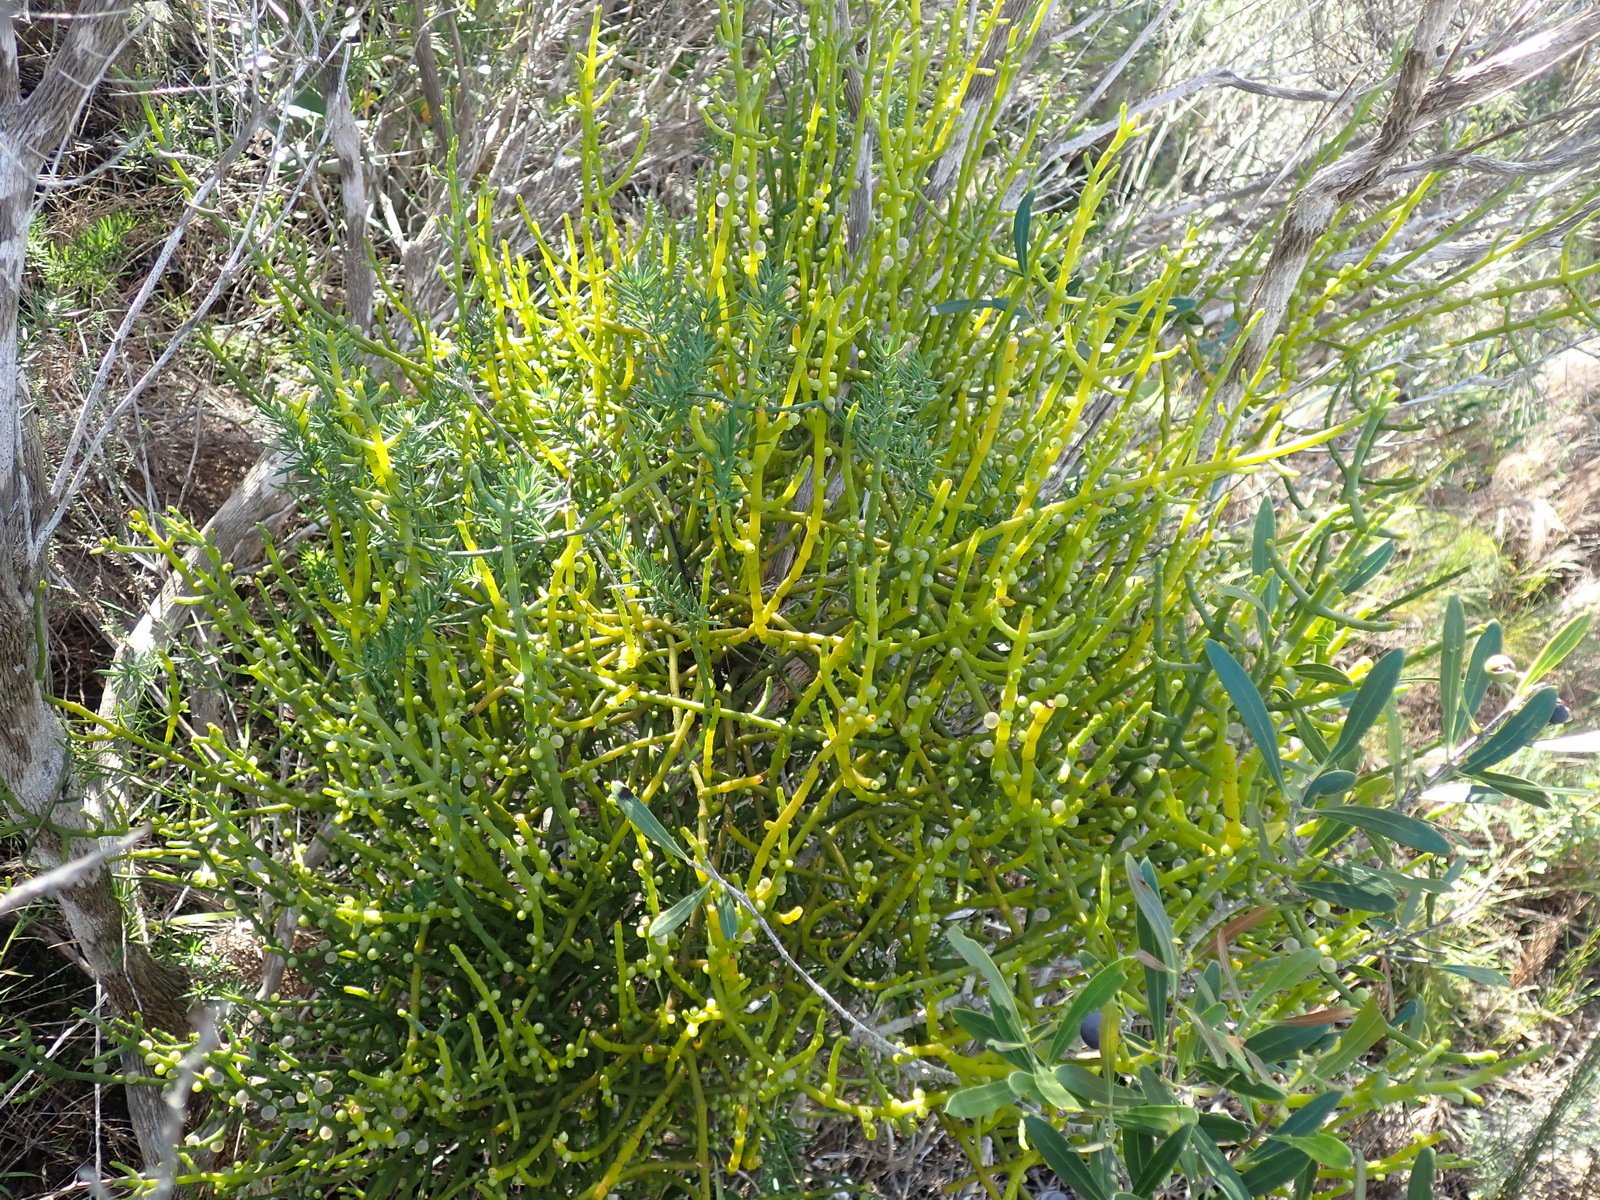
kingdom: Plantae
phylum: Tracheophyta
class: Magnoliopsida
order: Santalales
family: Viscaceae
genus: Viscum
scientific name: Viscum capense
